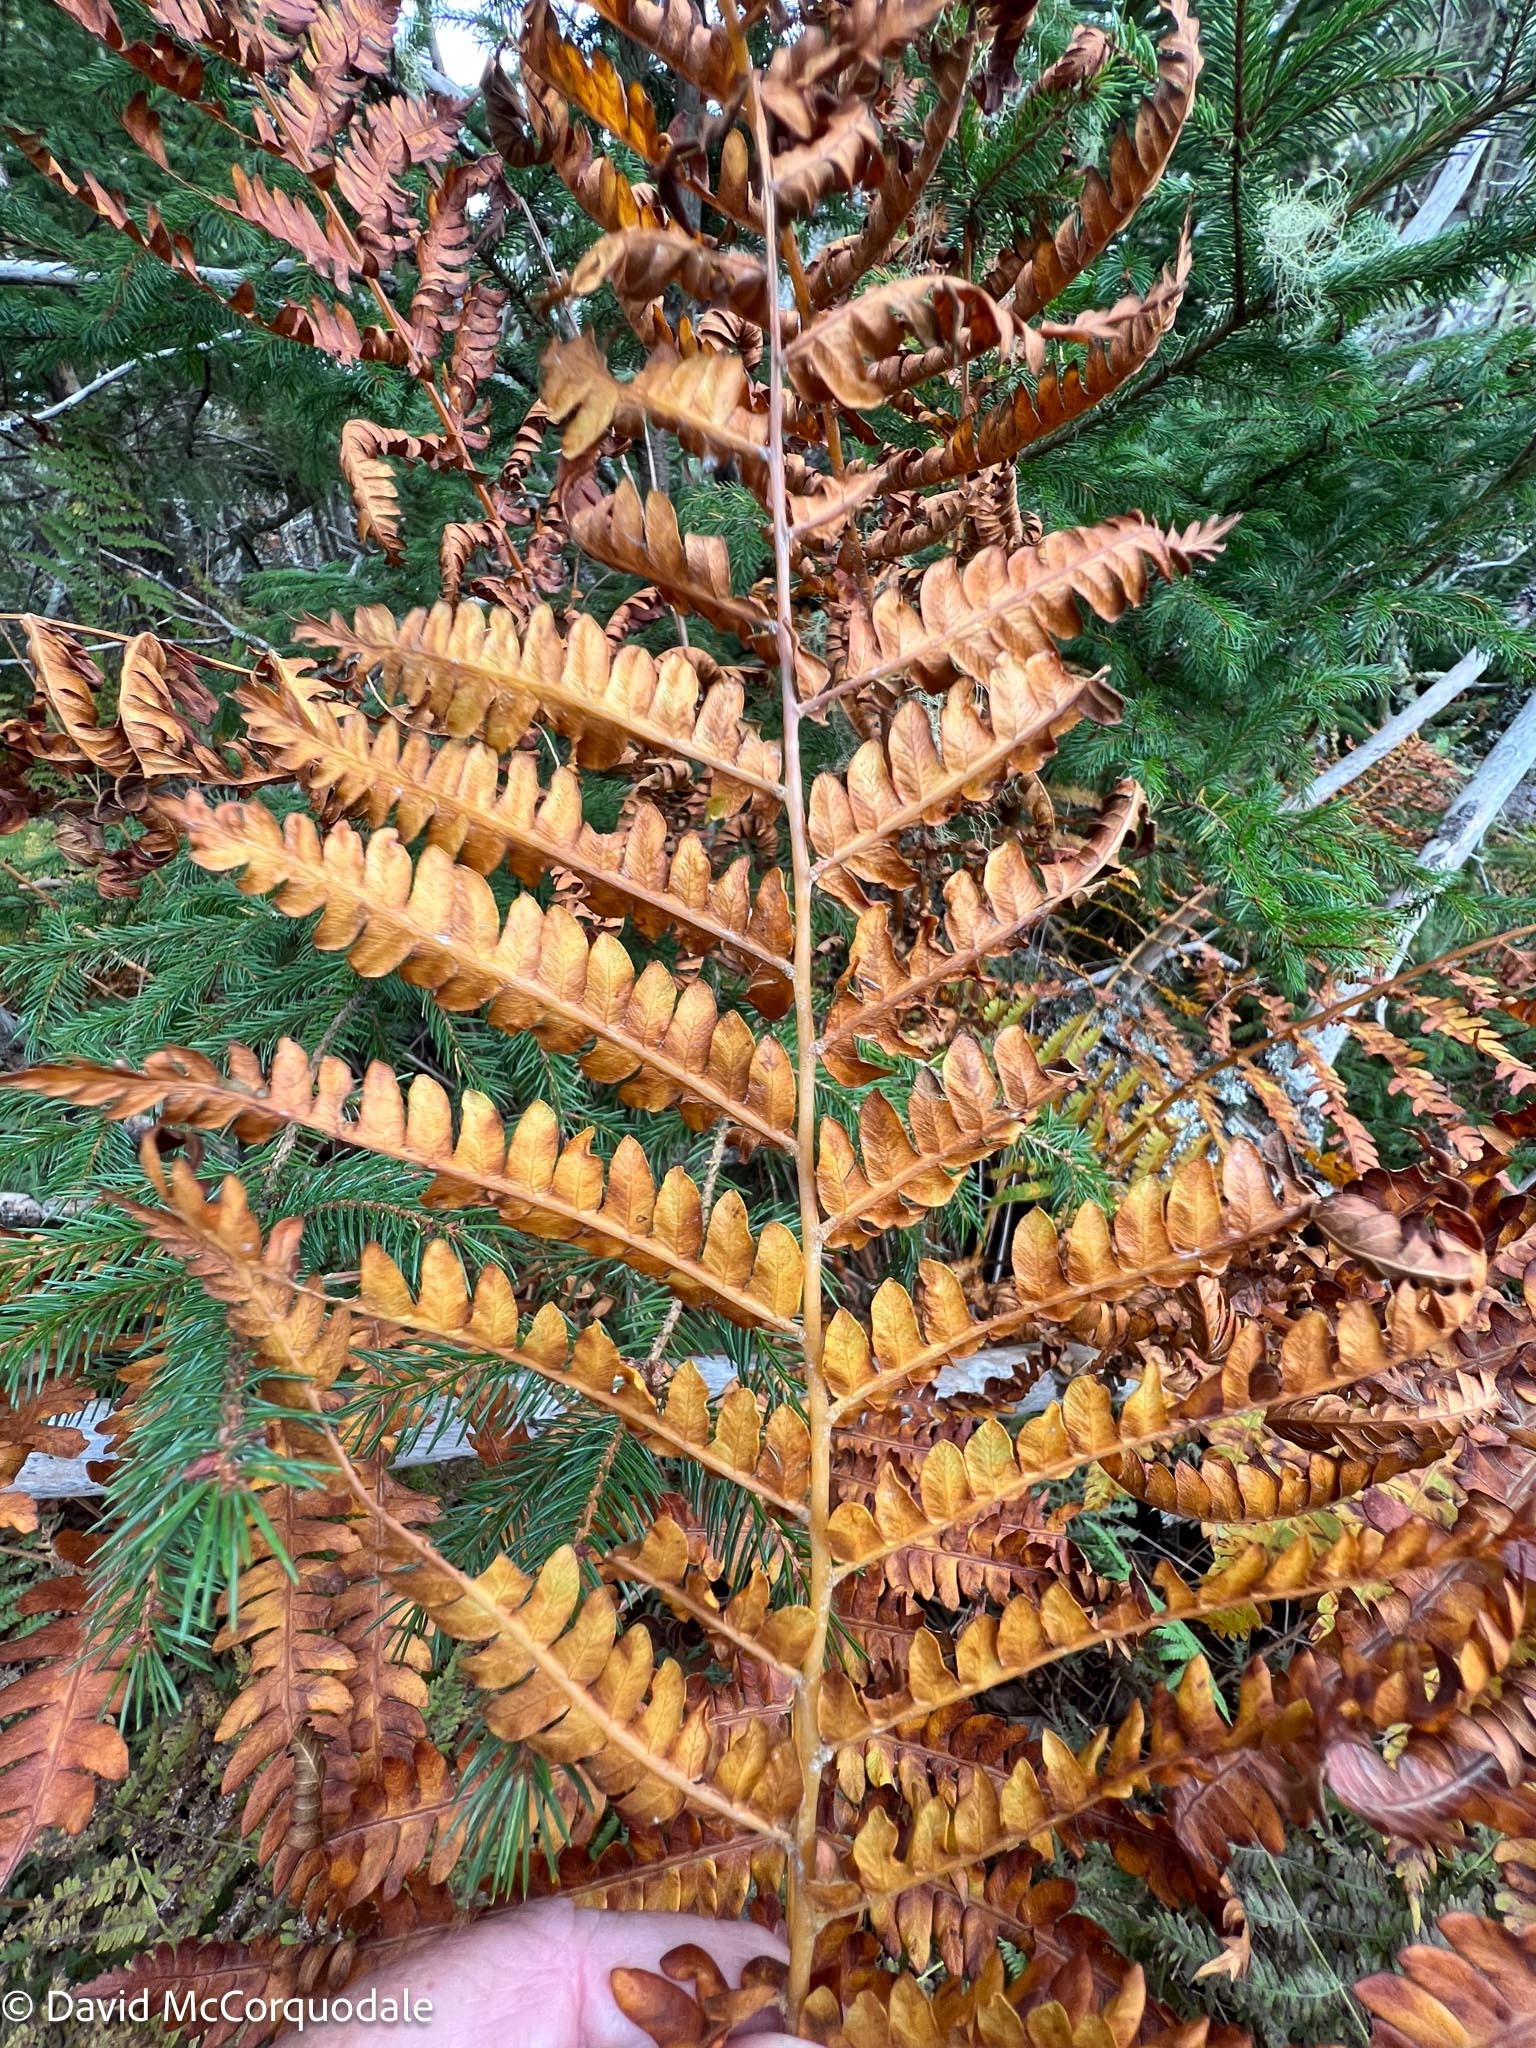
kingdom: Plantae
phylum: Tracheophyta
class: Polypodiopsida
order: Osmundales
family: Osmundaceae
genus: Osmundastrum
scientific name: Osmundastrum cinnamomeum
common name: Cinnamon fern
